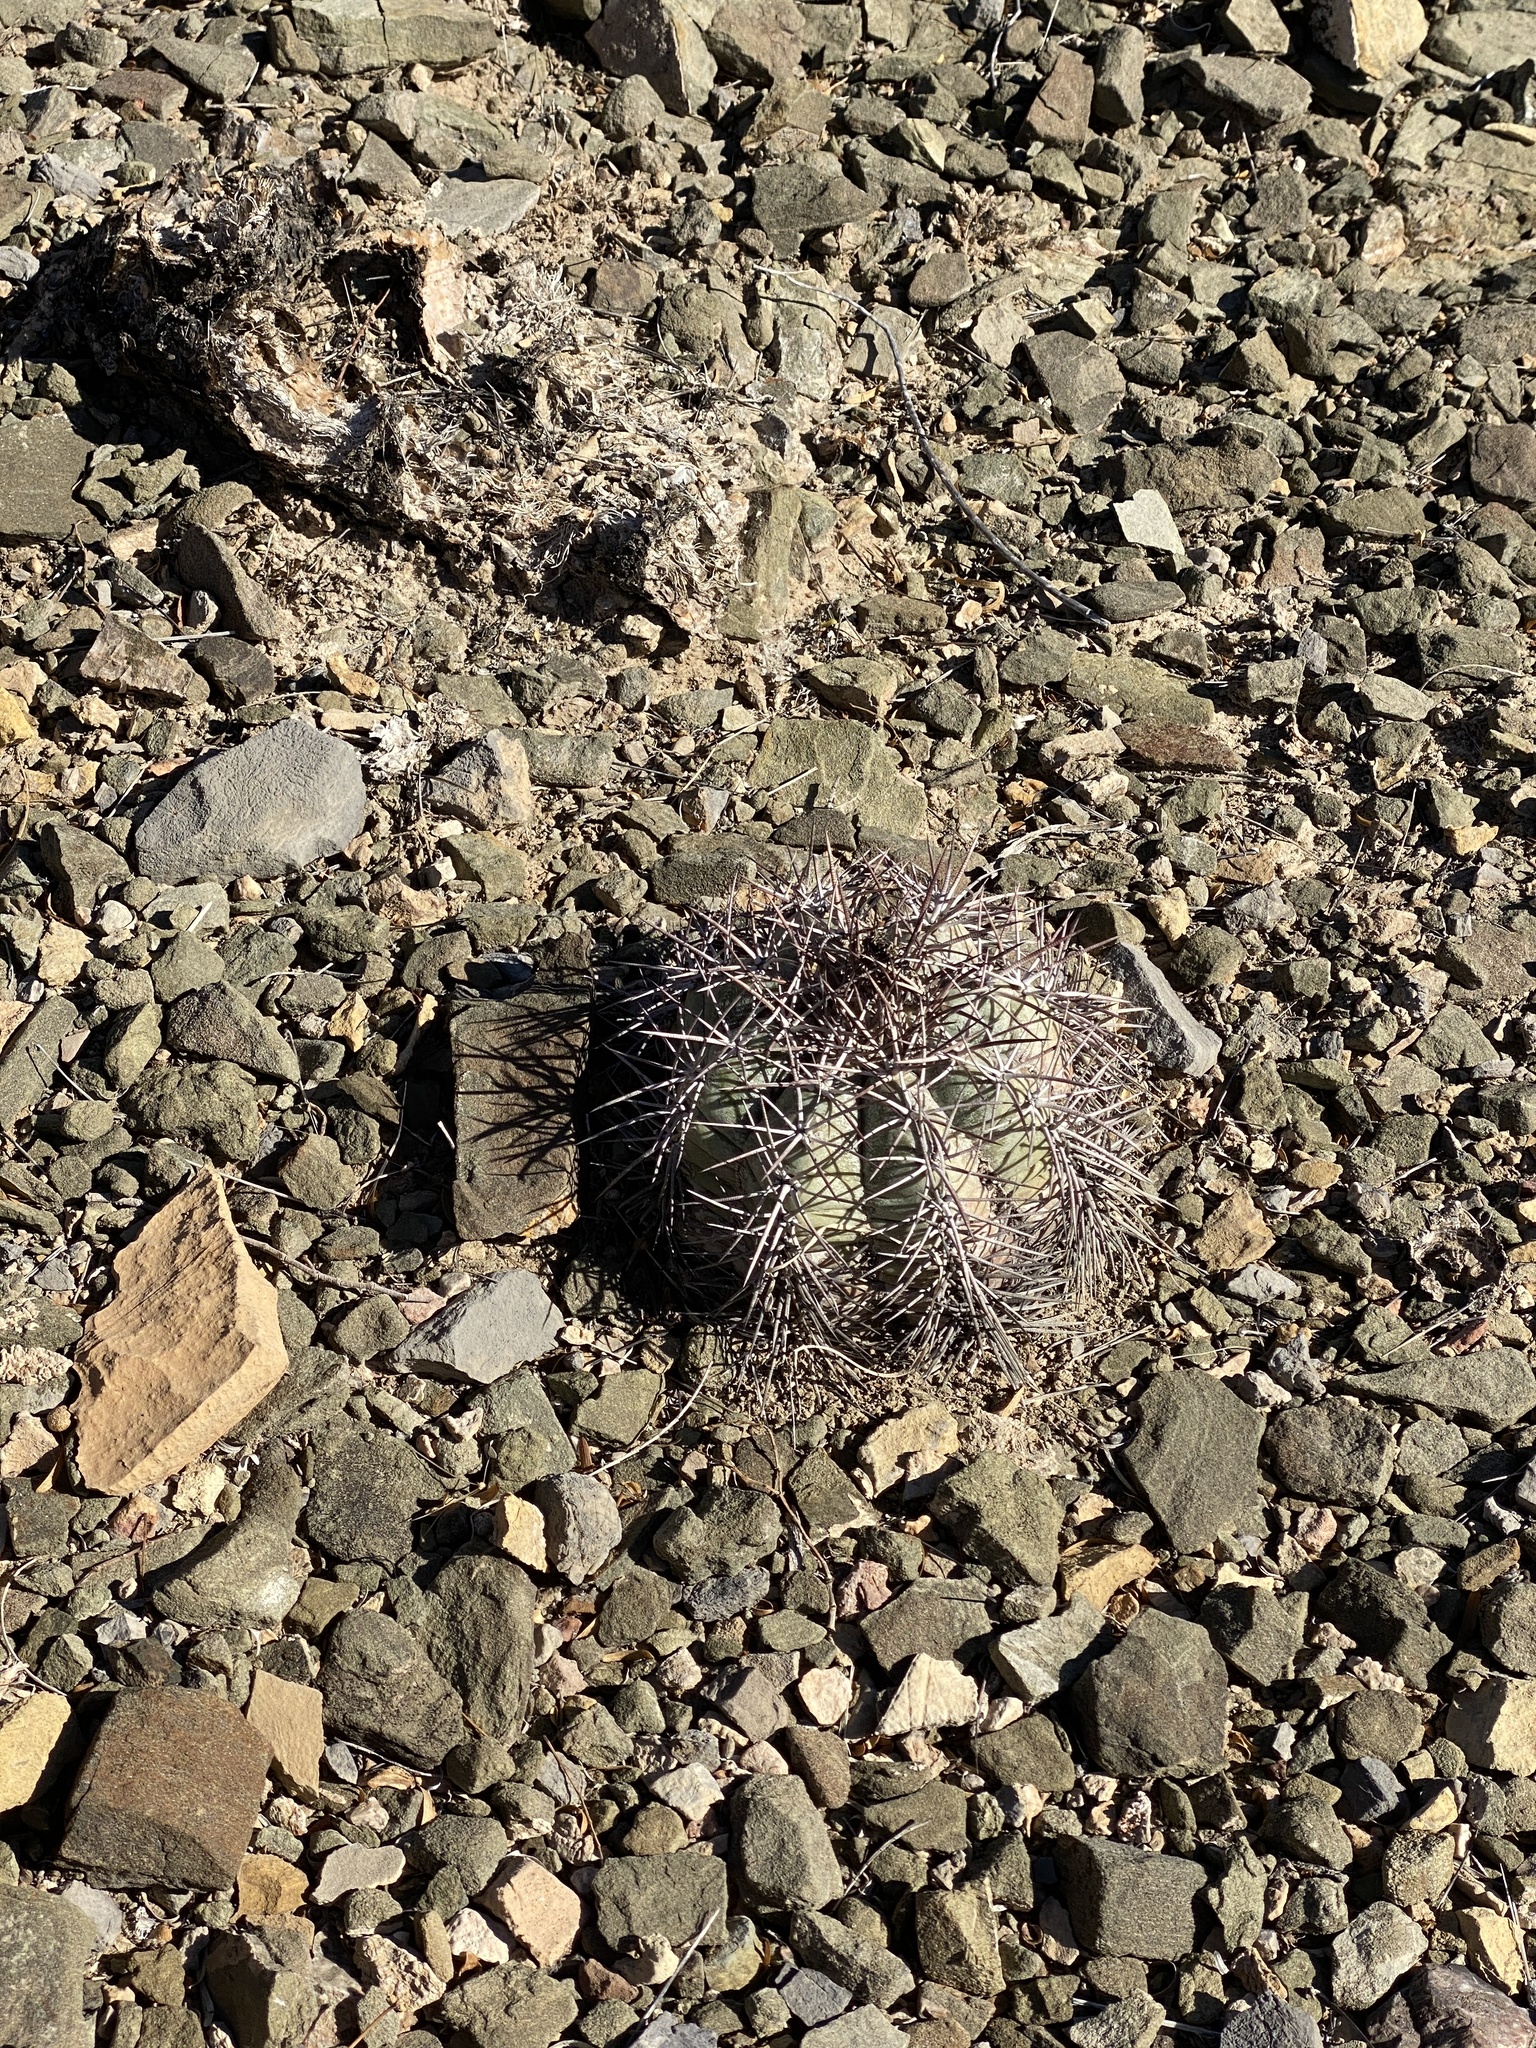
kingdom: Plantae
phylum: Tracheophyta
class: Magnoliopsida
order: Caryophyllales
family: Cactaceae
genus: Echinocactus
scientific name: Echinocactus horizonthalonius
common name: Devilshead
